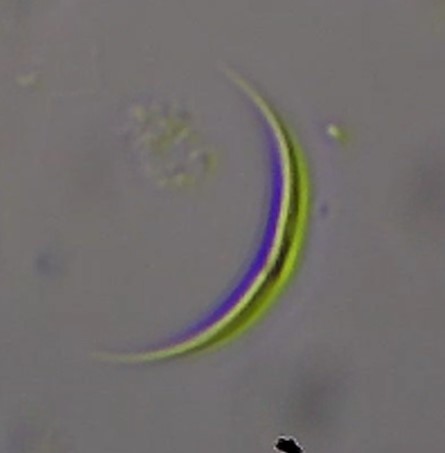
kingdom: Plantae
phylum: Chlorophyta
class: Chlorophyceae
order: Sphaeropleales
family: Selenastraceae
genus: Ankistrodesmus
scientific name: Ankistrodesmus spec
